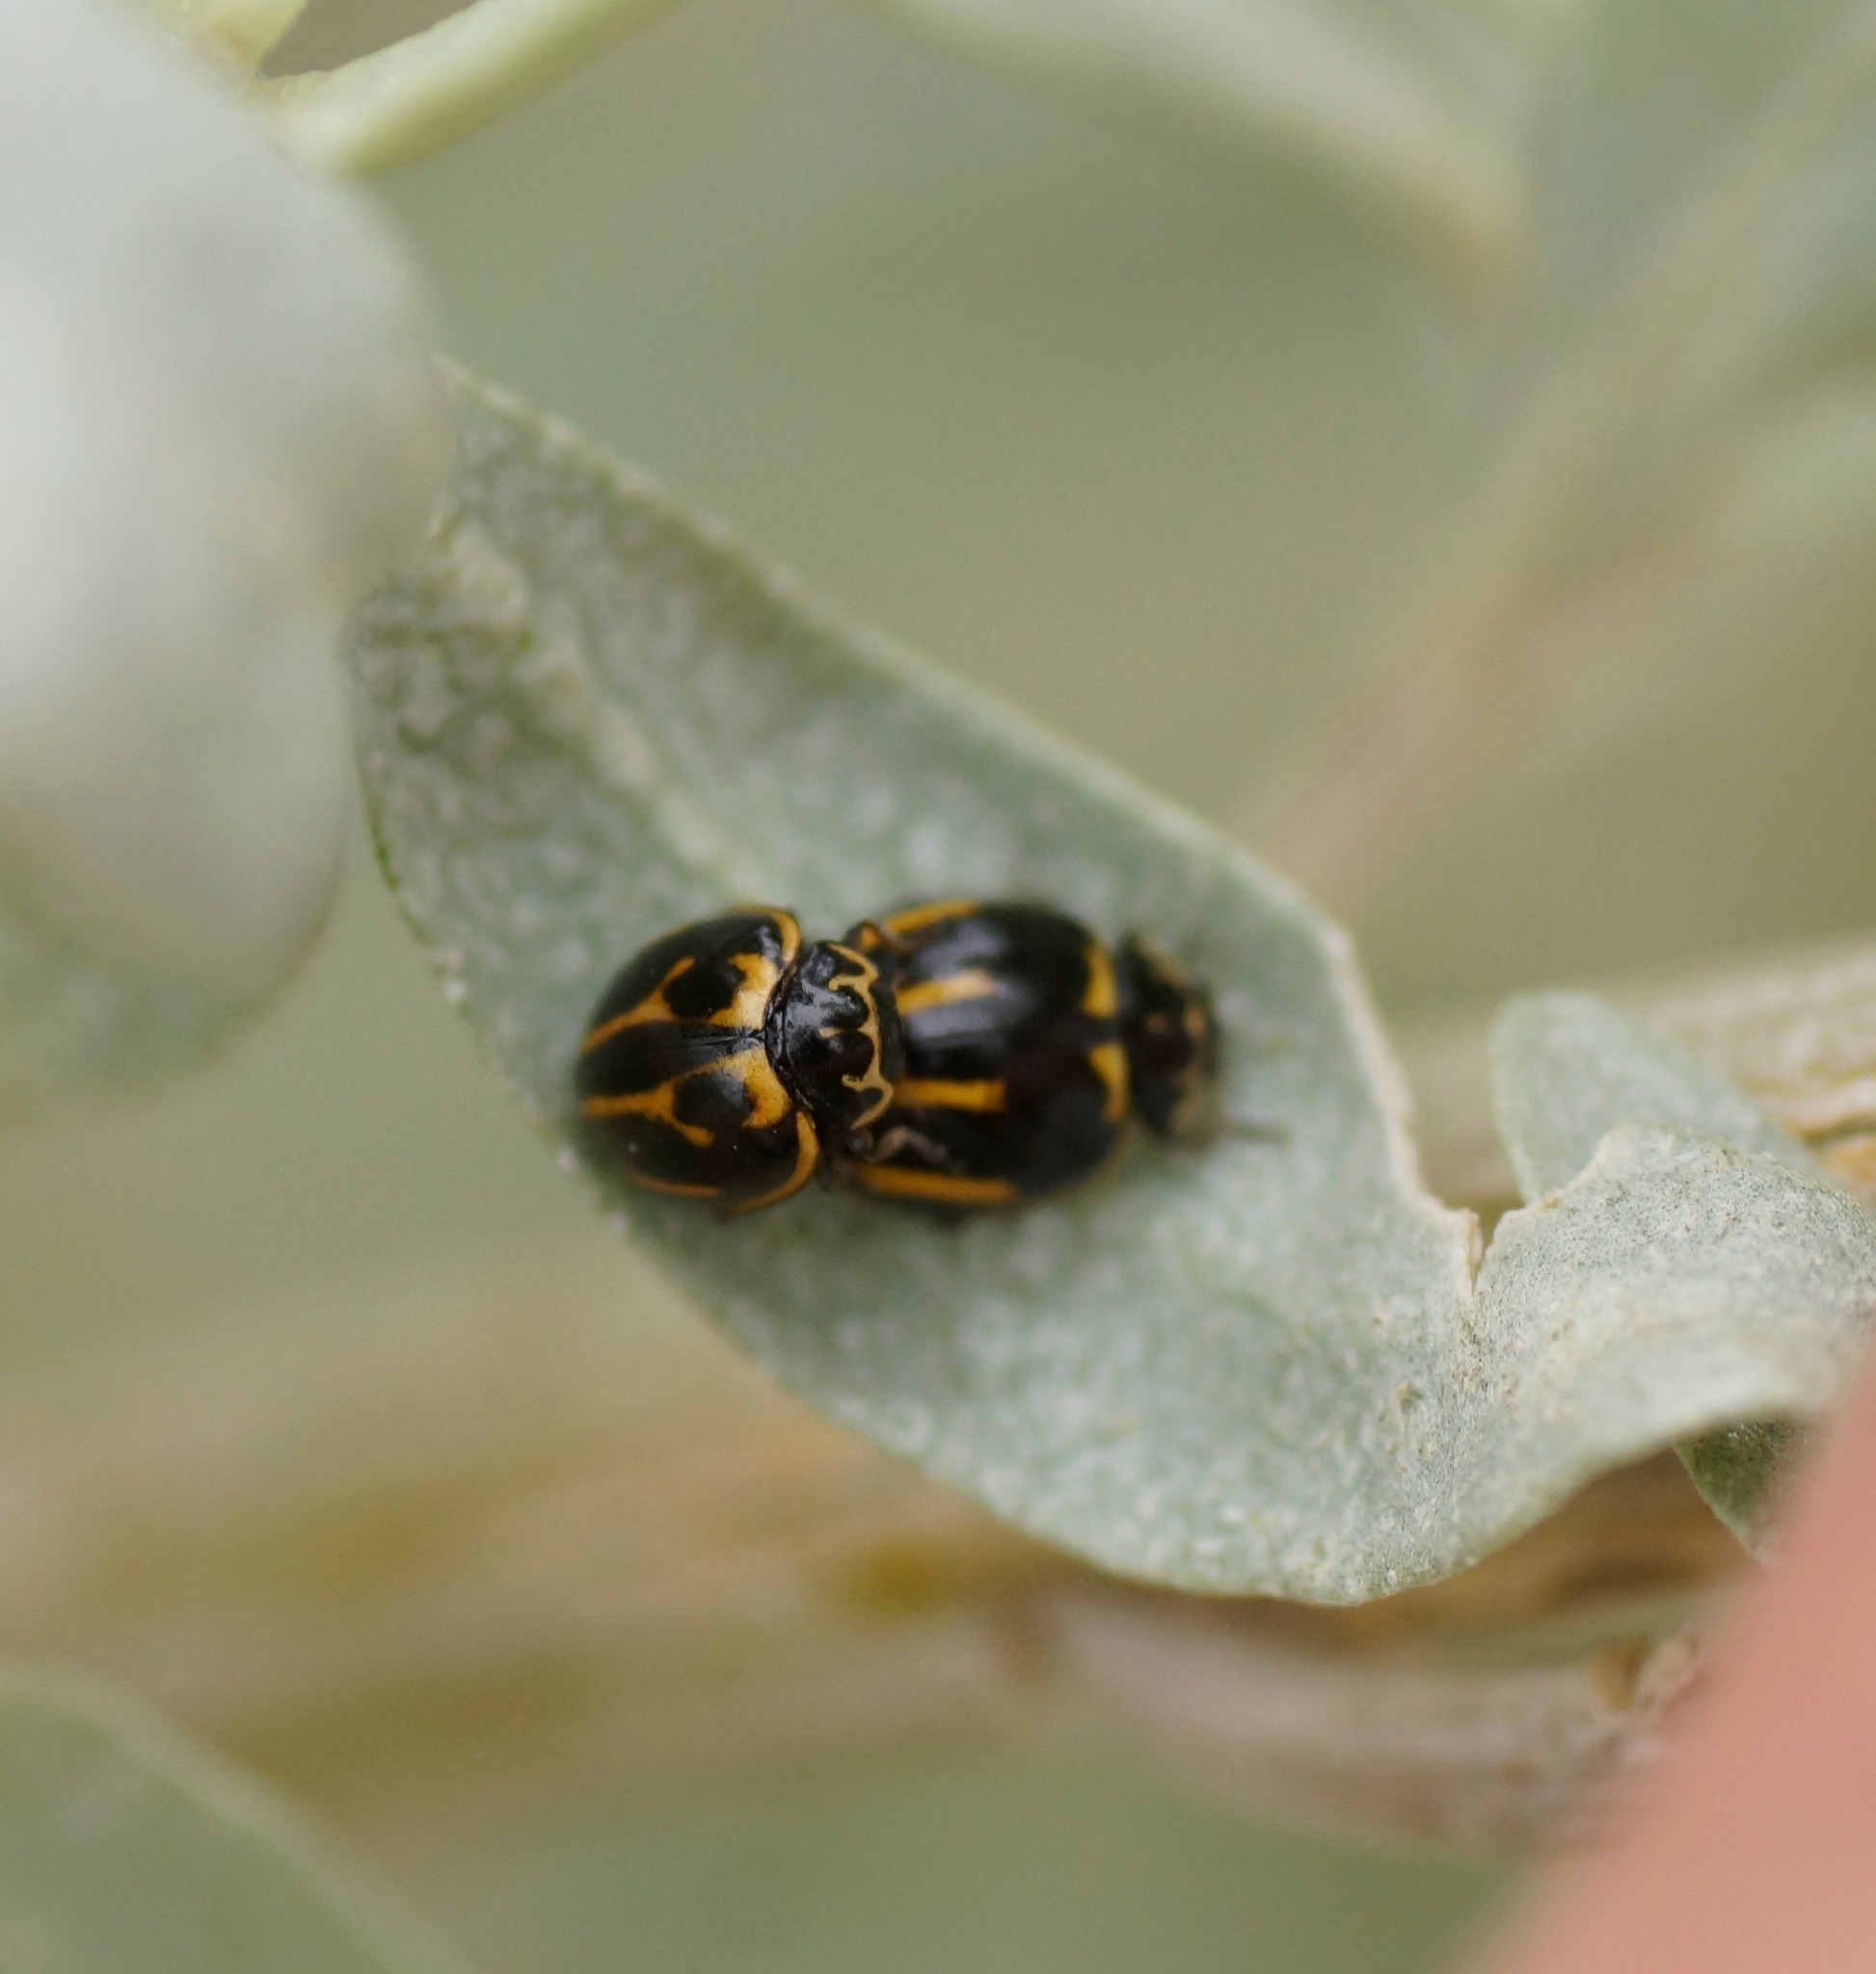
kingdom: Animalia
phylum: Arthropoda
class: Insecta
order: Coleoptera
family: Coccinellidae
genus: Micraspis
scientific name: Micraspis
